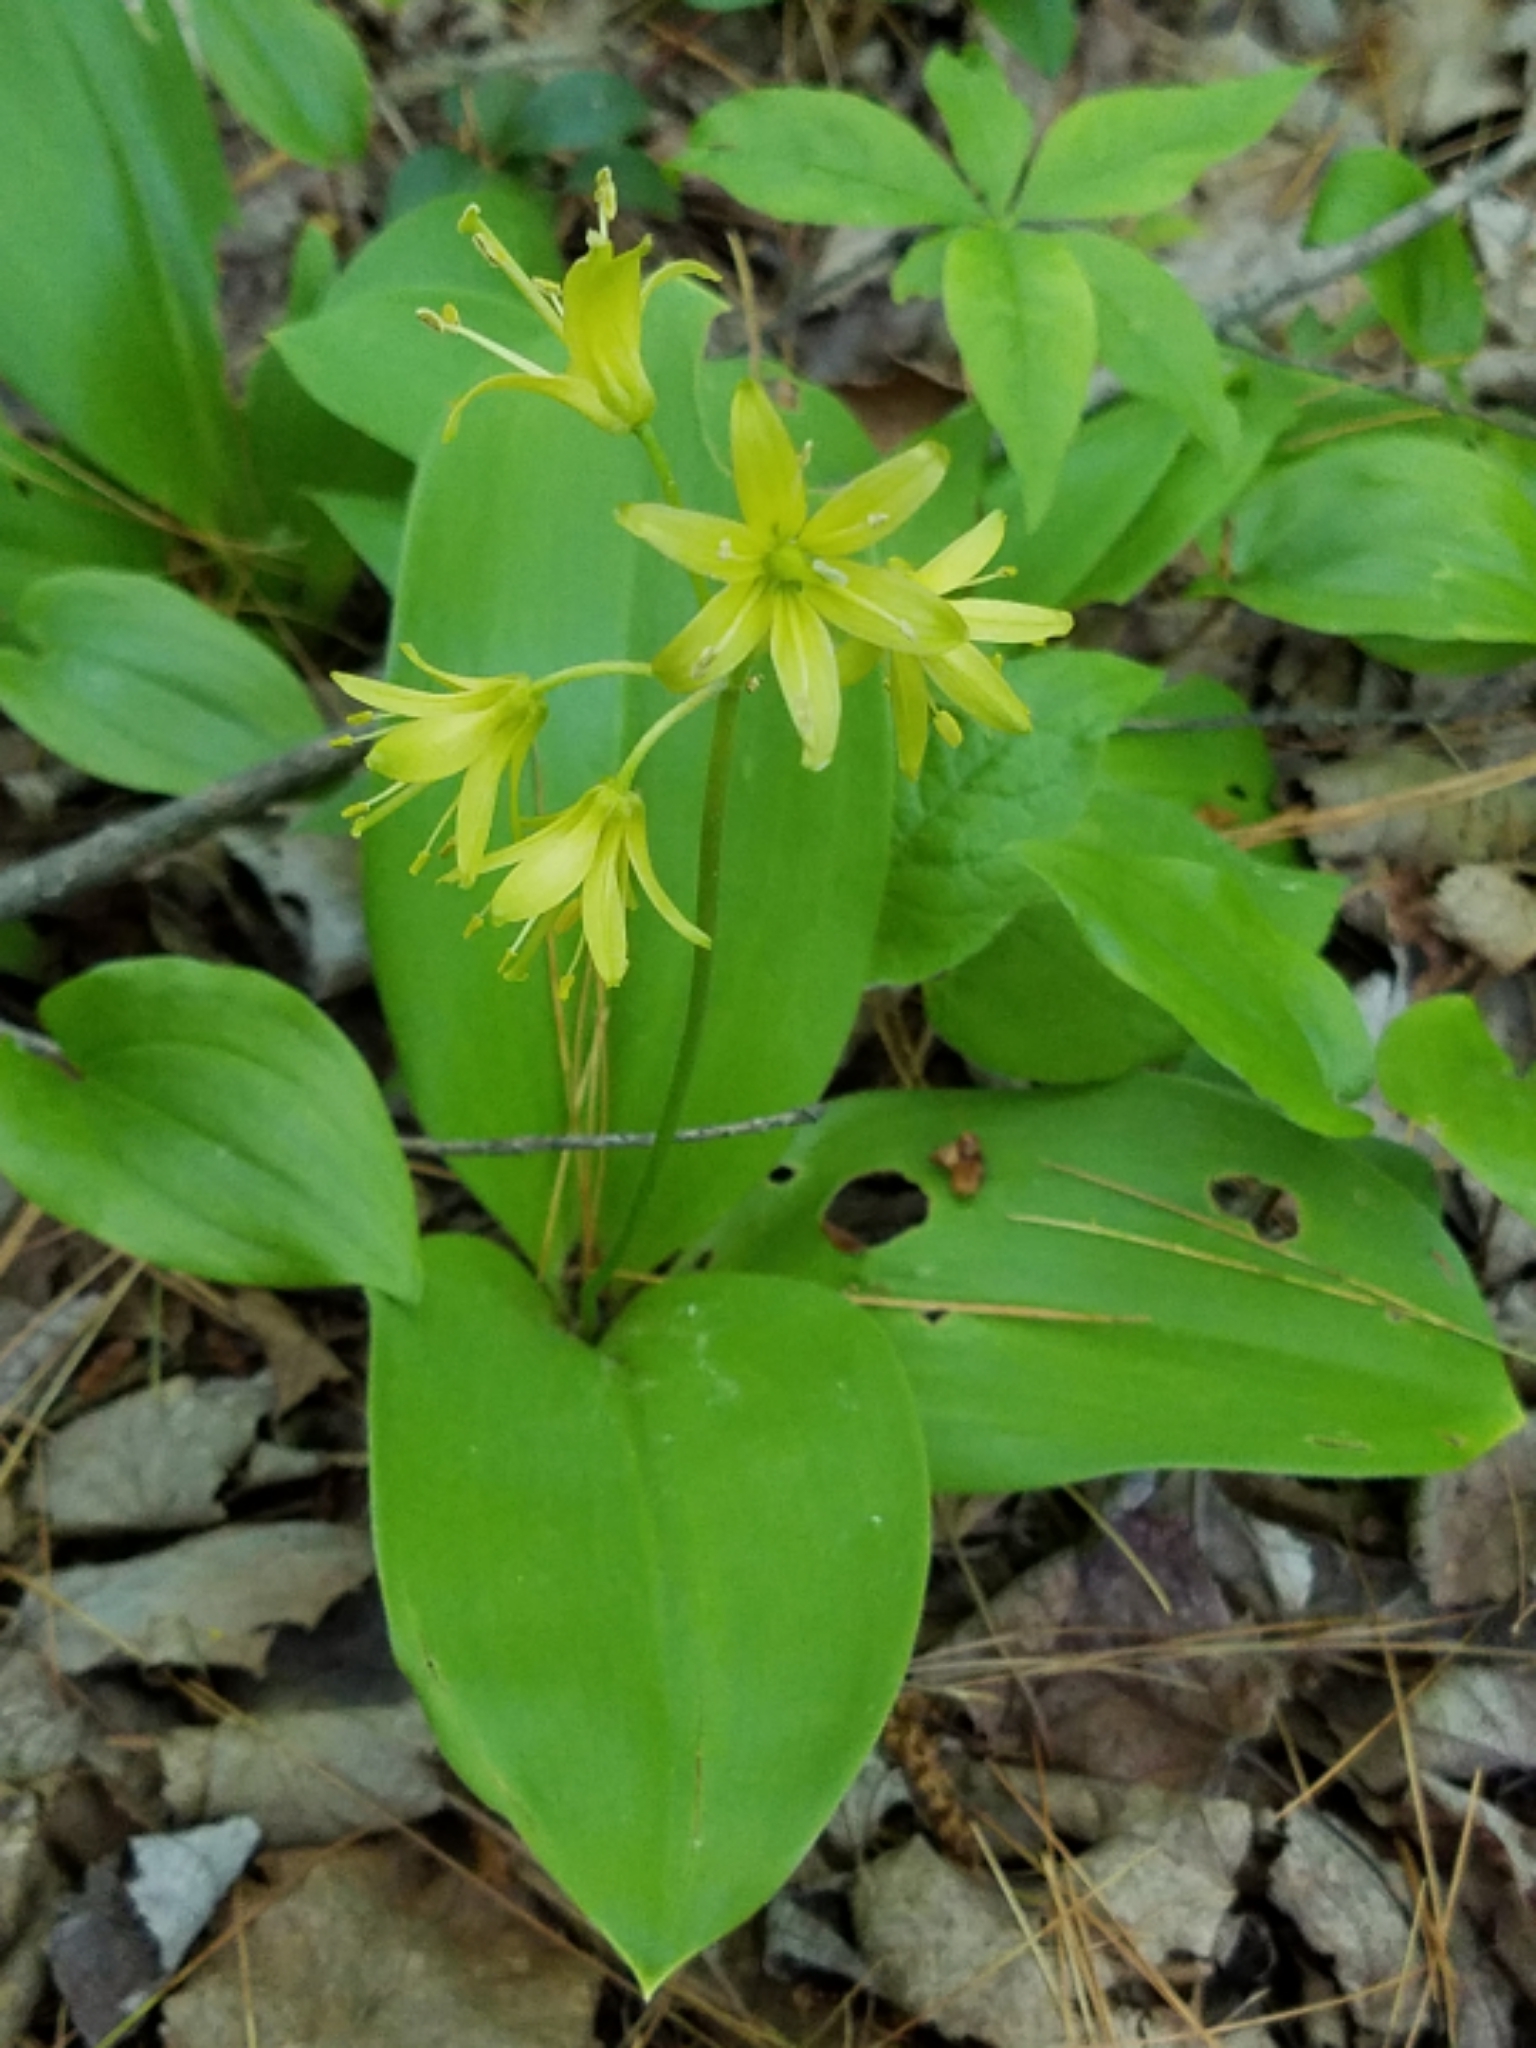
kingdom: Plantae
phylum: Tracheophyta
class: Liliopsida
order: Liliales
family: Liliaceae
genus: Clintonia
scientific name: Clintonia borealis
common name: Yellow clintonia
